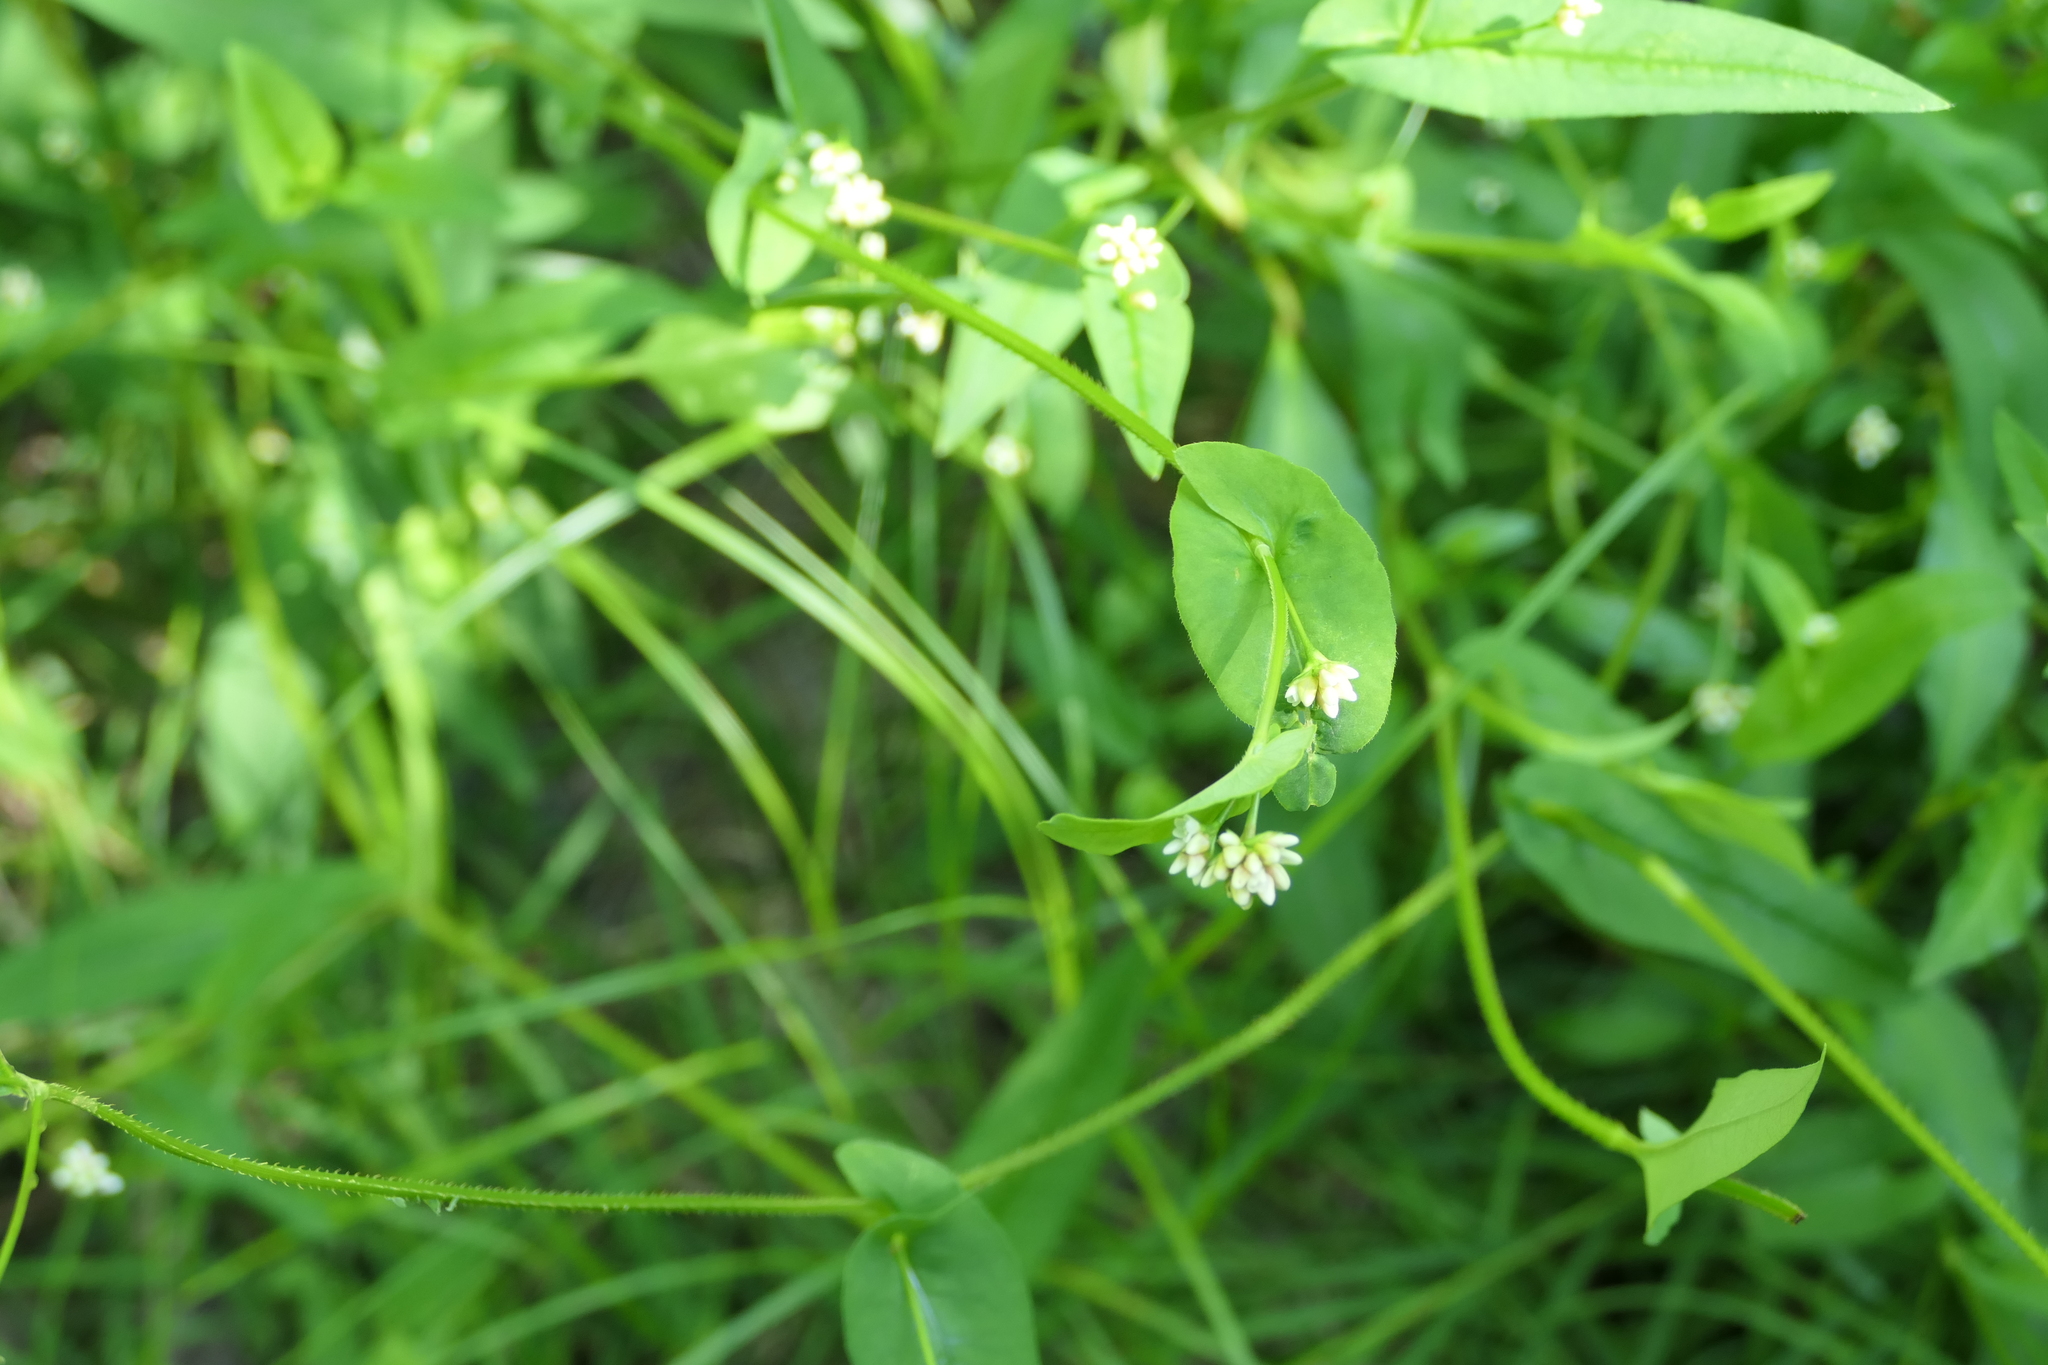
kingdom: Plantae
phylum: Tracheophyta
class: Magnoliopsida
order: Caryophyllales
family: Polygonaceae
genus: Persicaria
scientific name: Persicaria sagittata
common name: American tearthumb
